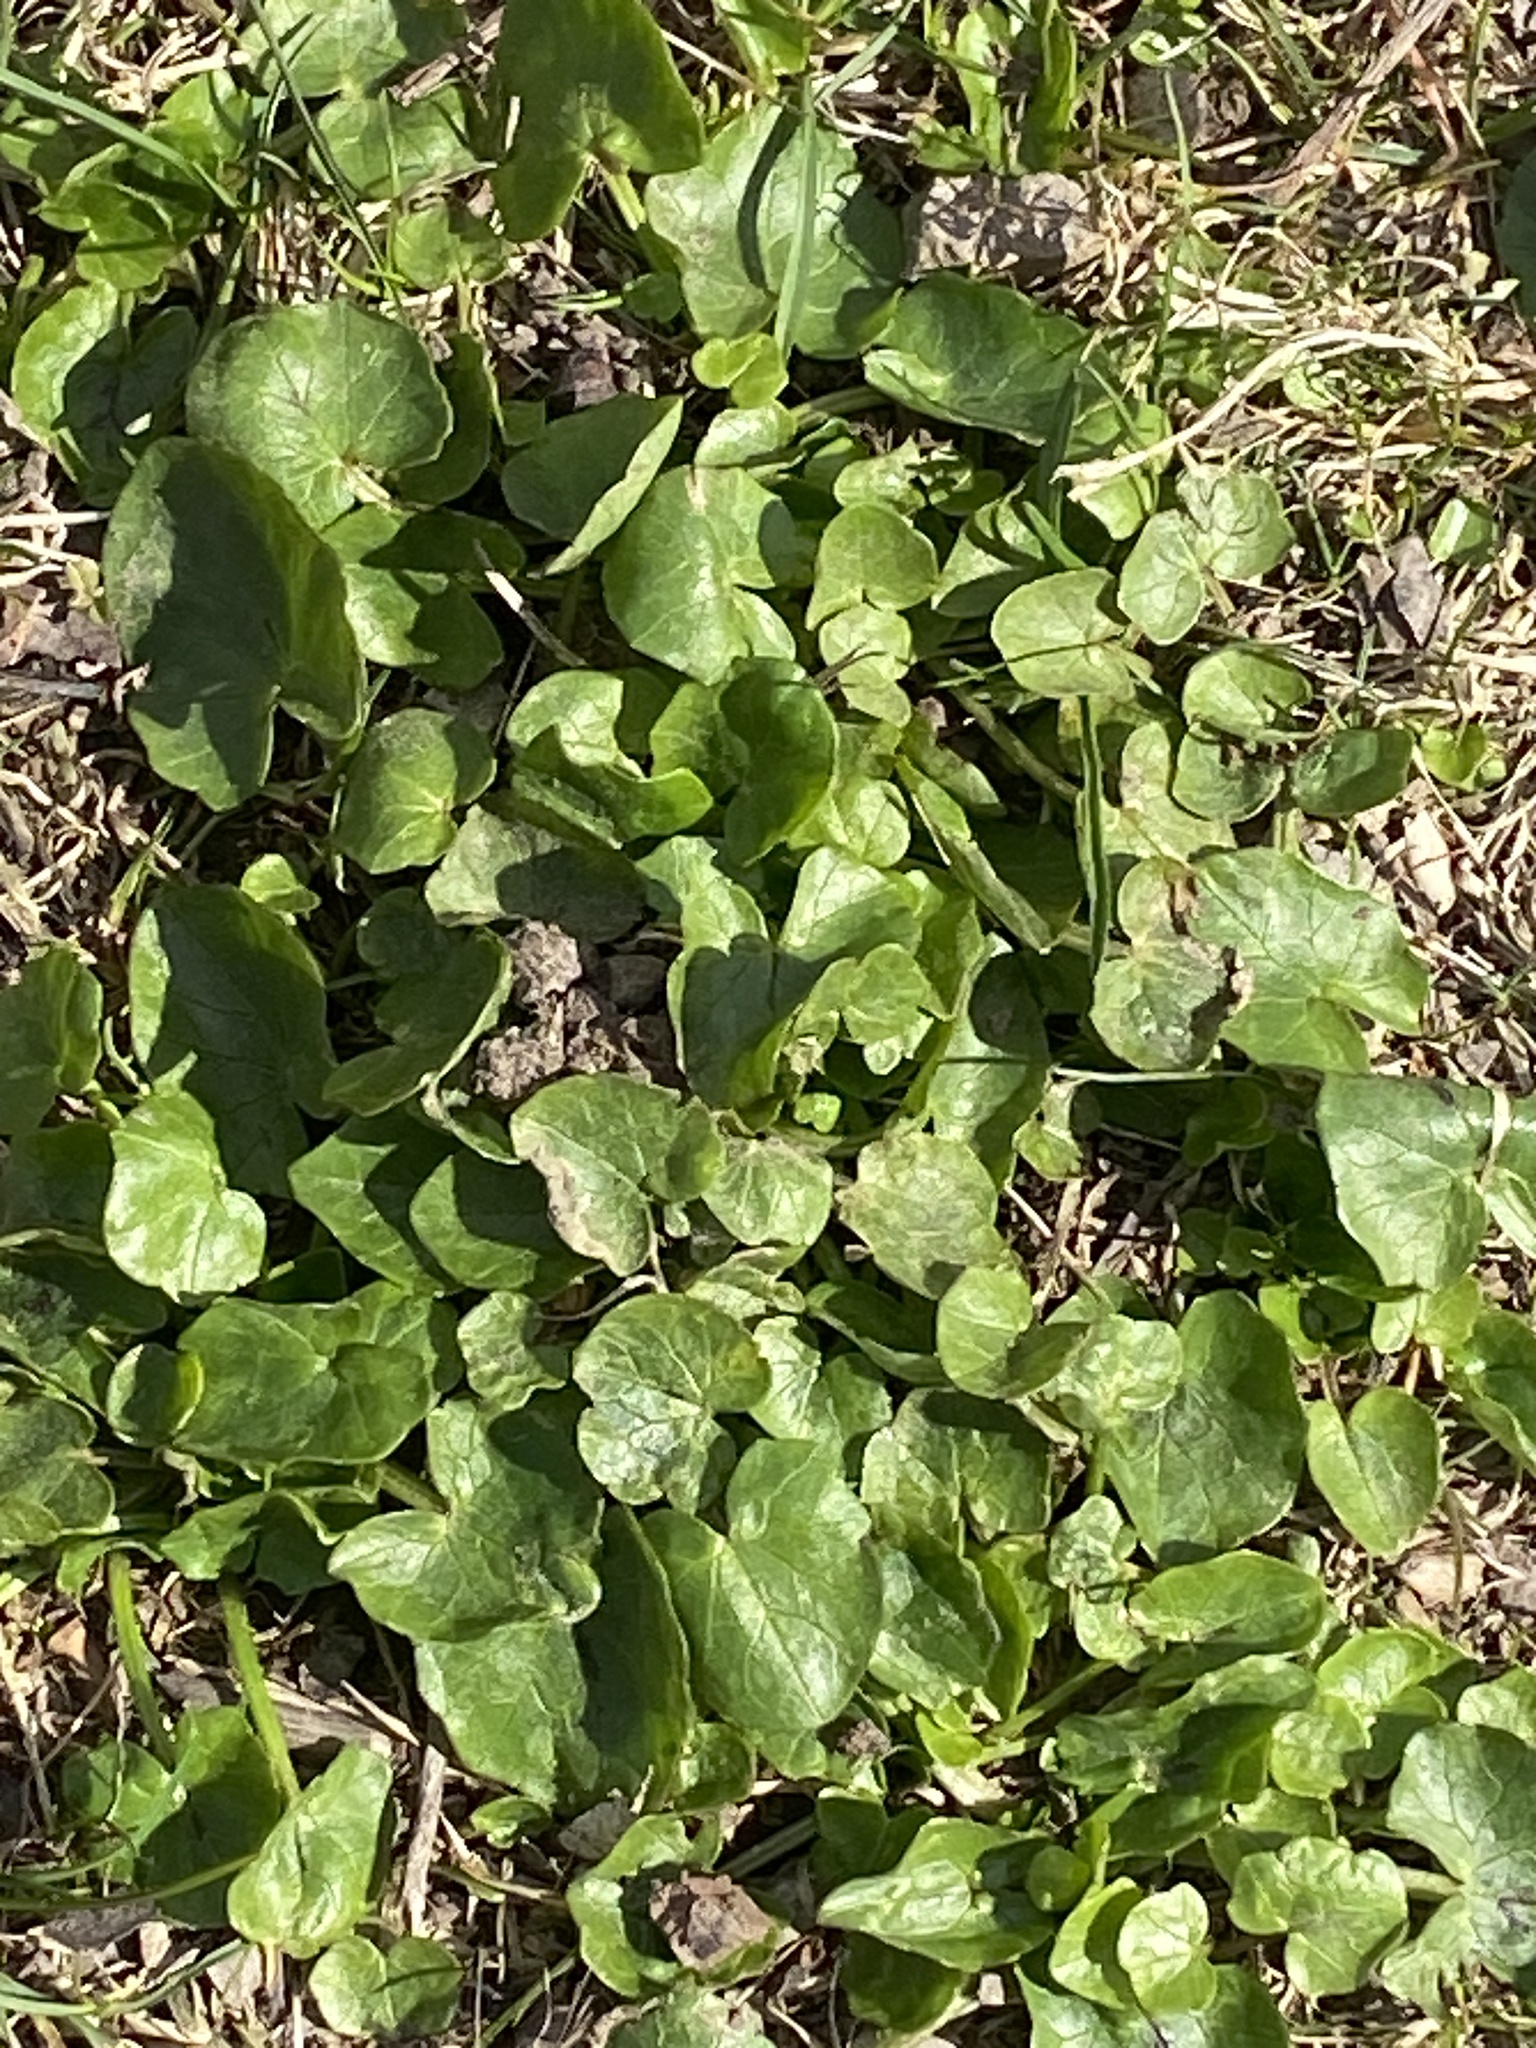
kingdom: Plantae
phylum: Tracheophyta
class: Magnoliopsida
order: Ranunculales
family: Ranunculaceae
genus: Ficaria
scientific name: Ficaria verna
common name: Lesser celandine
